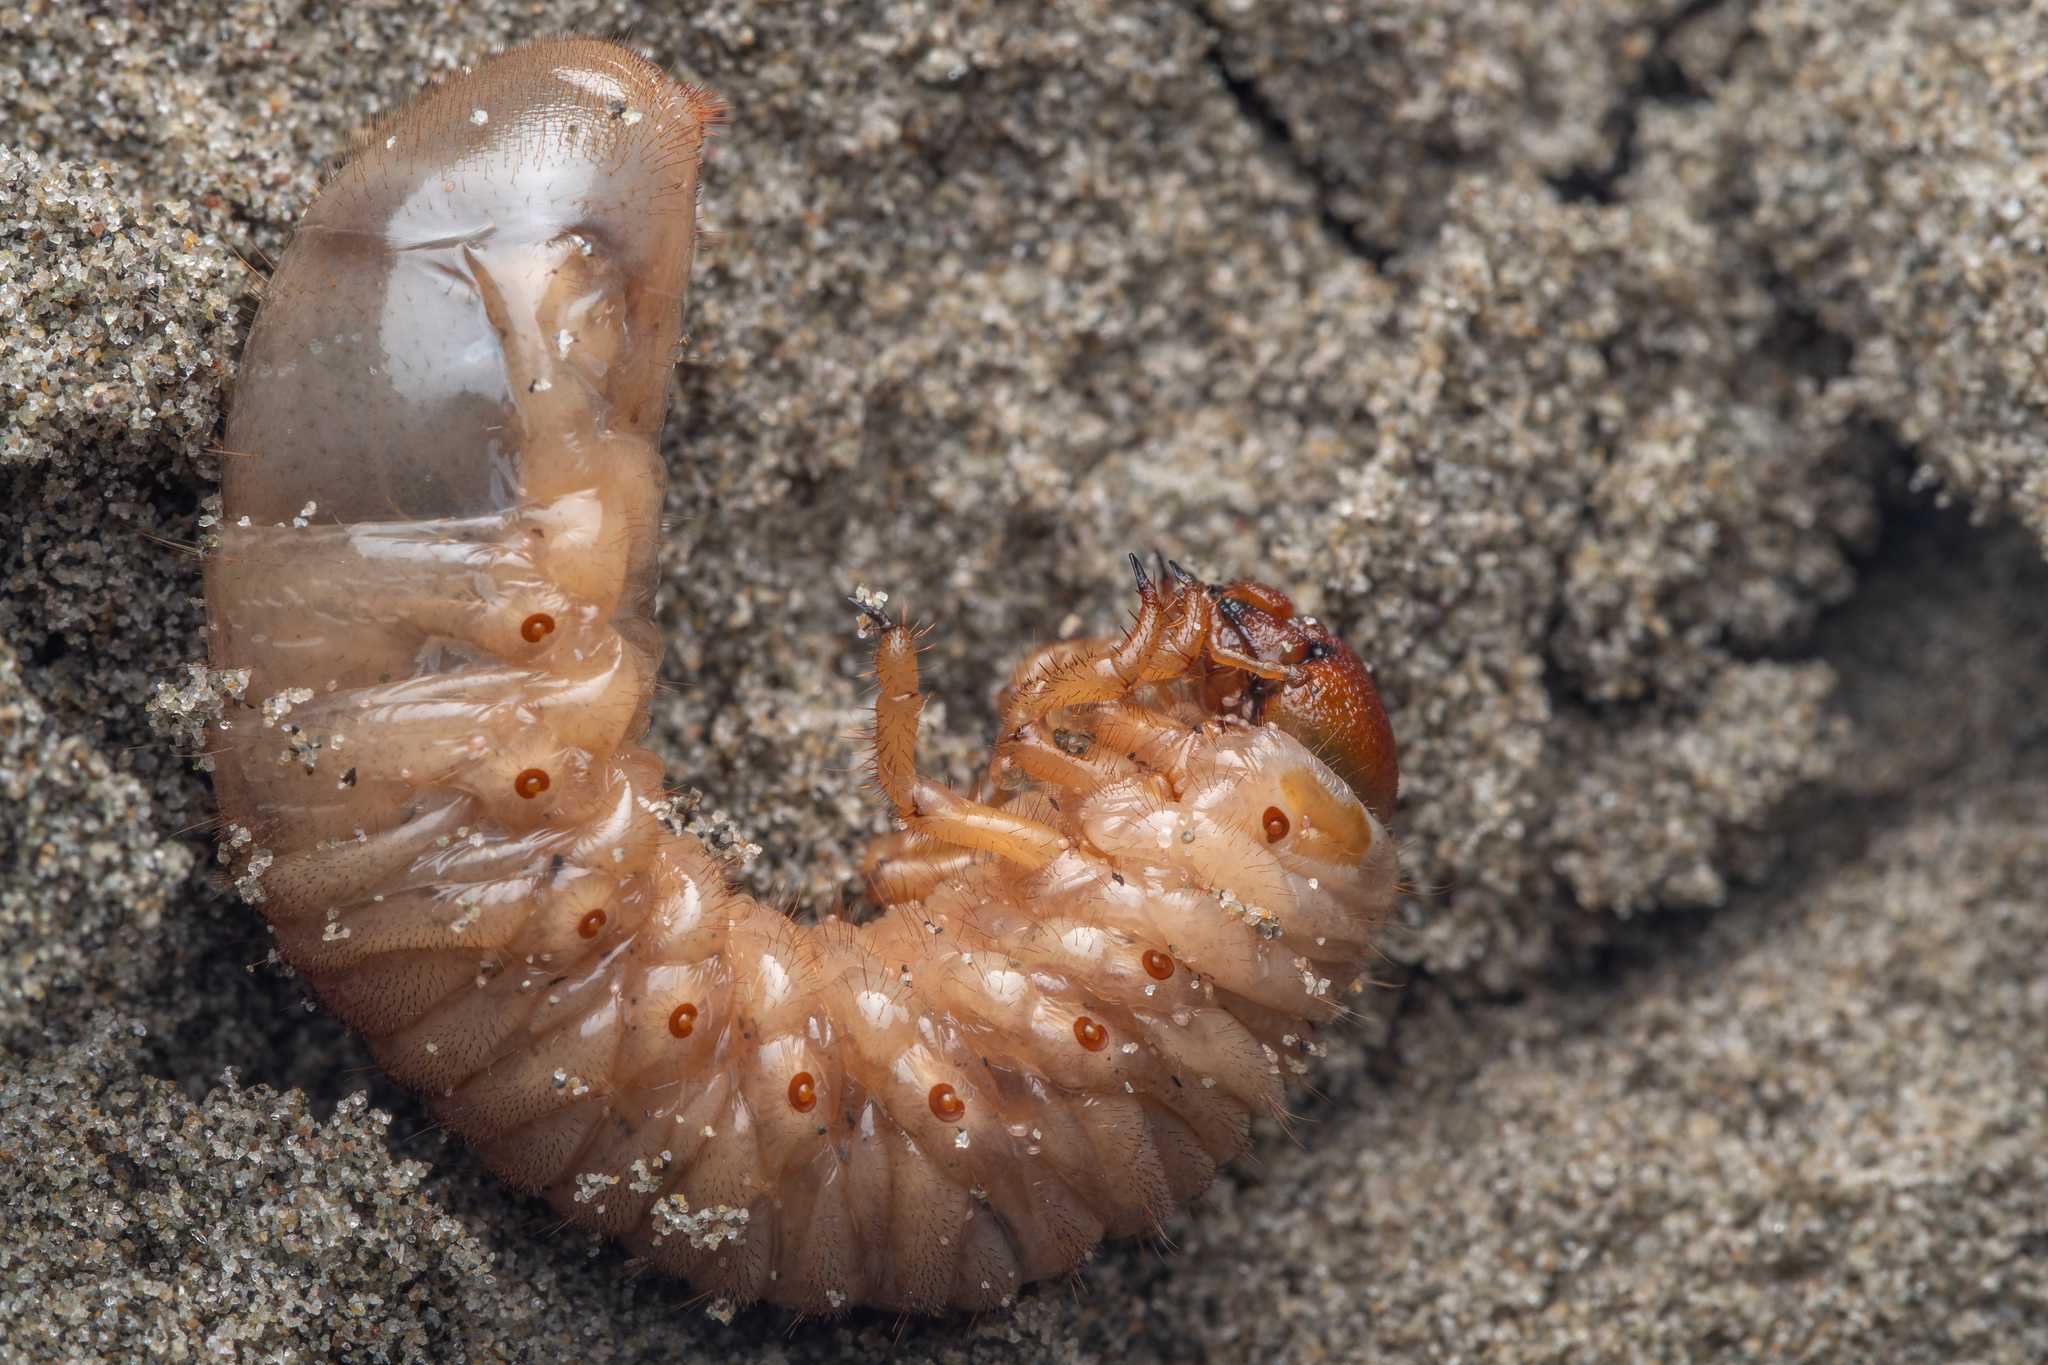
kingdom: Animalia
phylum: Arthropoda
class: Insecta
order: Coleoptera
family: Scarabaeidae
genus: Pericoptus
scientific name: Pericoptus truncatus
